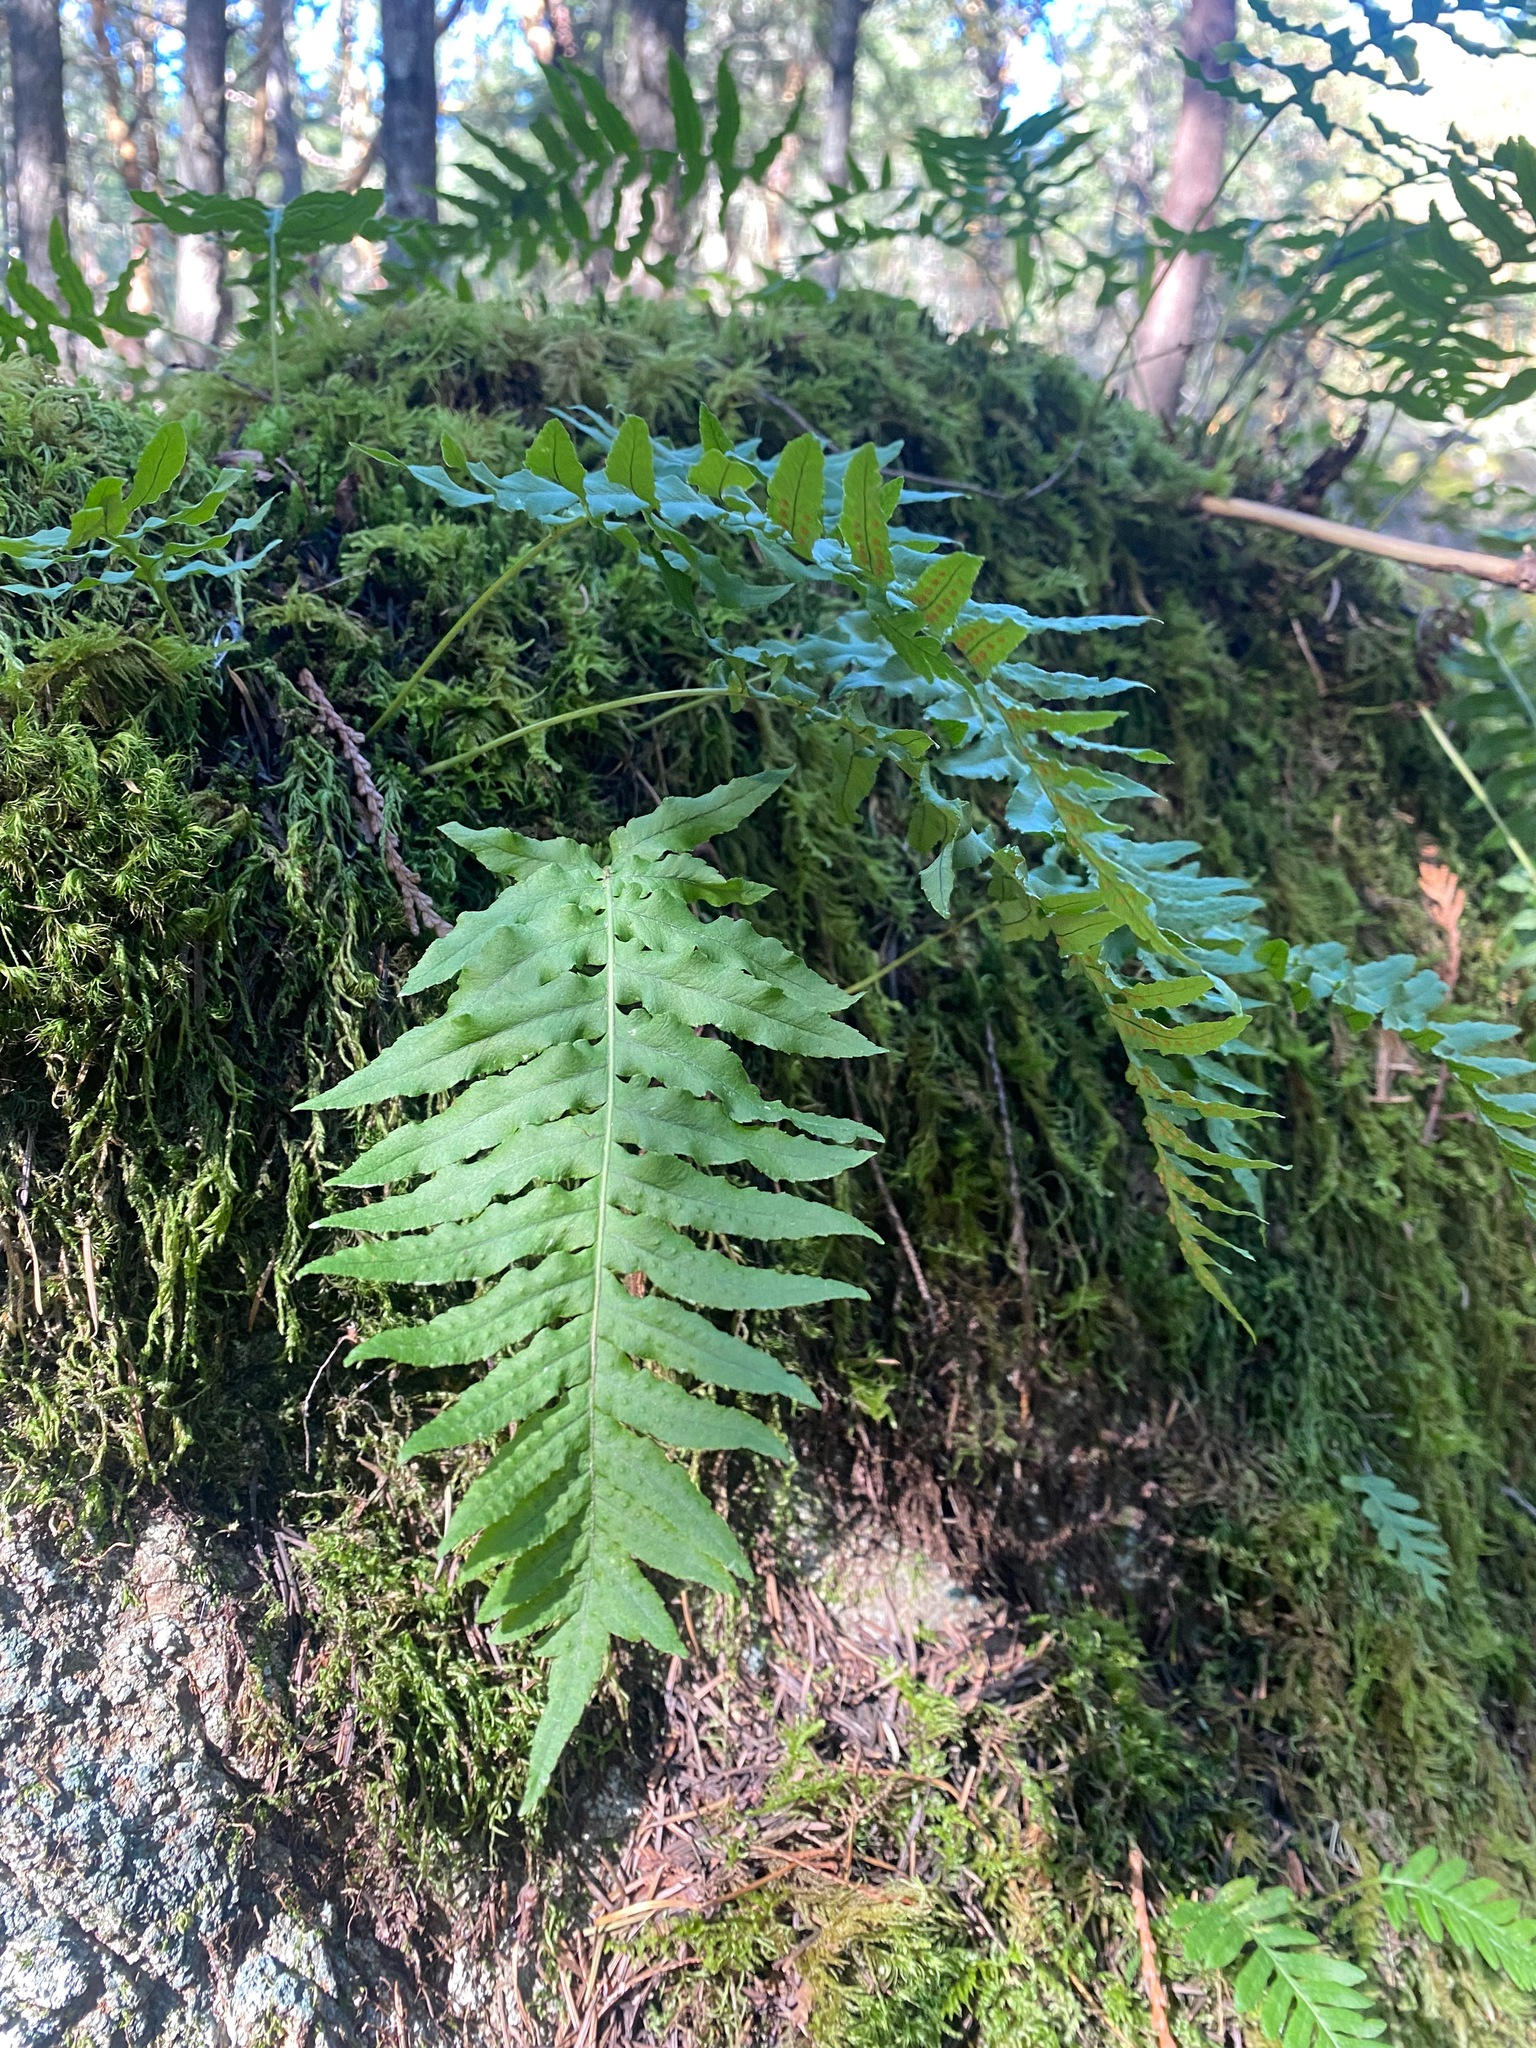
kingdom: Plantae
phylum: Tracheophyta
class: Polypodiopsida
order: Polypodiales
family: Polypodiaceae
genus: Polypodium
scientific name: Polypodium glycyrrhiza
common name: Licorice fern
